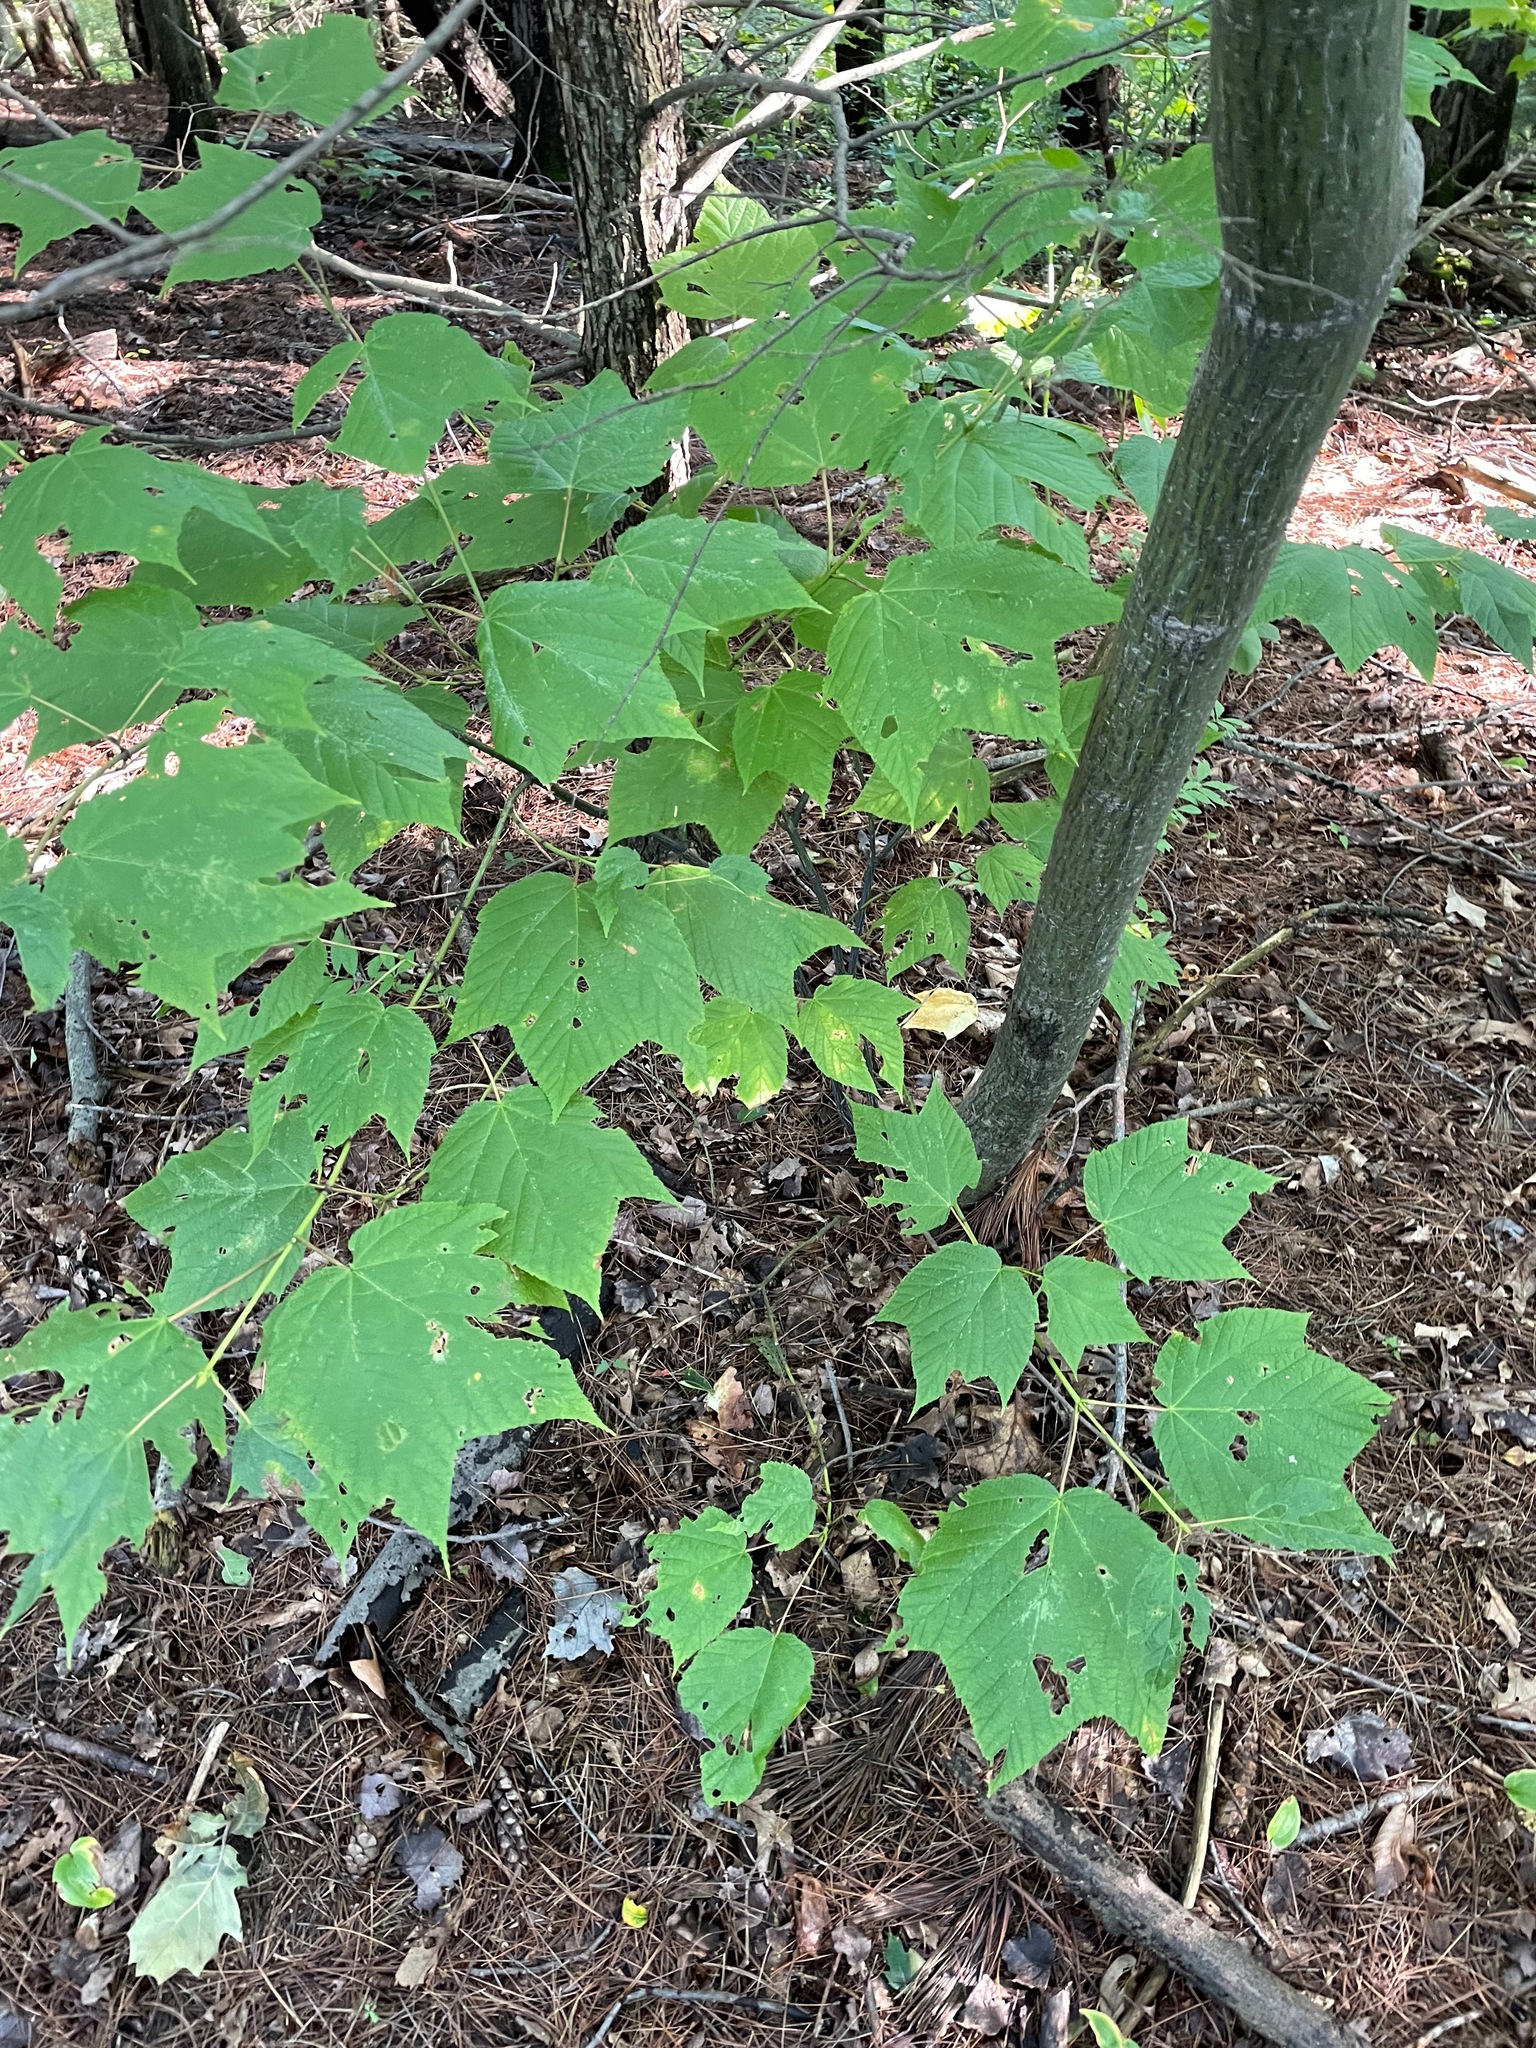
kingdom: Plantae
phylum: Tracheophyta
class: Magnoliopsida
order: Sapindales
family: Sapindaceae
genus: Acer
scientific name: Acer pensylvanicum
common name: Moosewood
